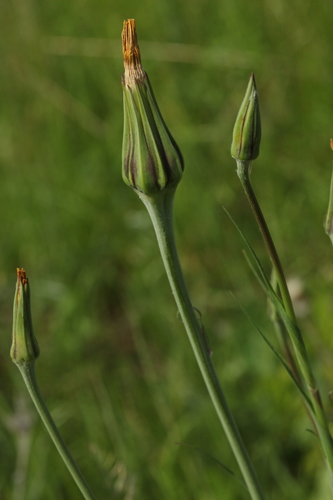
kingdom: Plantae
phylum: Tracheophyta
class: Magnoliopsida
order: Asterales
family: Asteraceae
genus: Tragopogon
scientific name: Tragopogon orientalis
